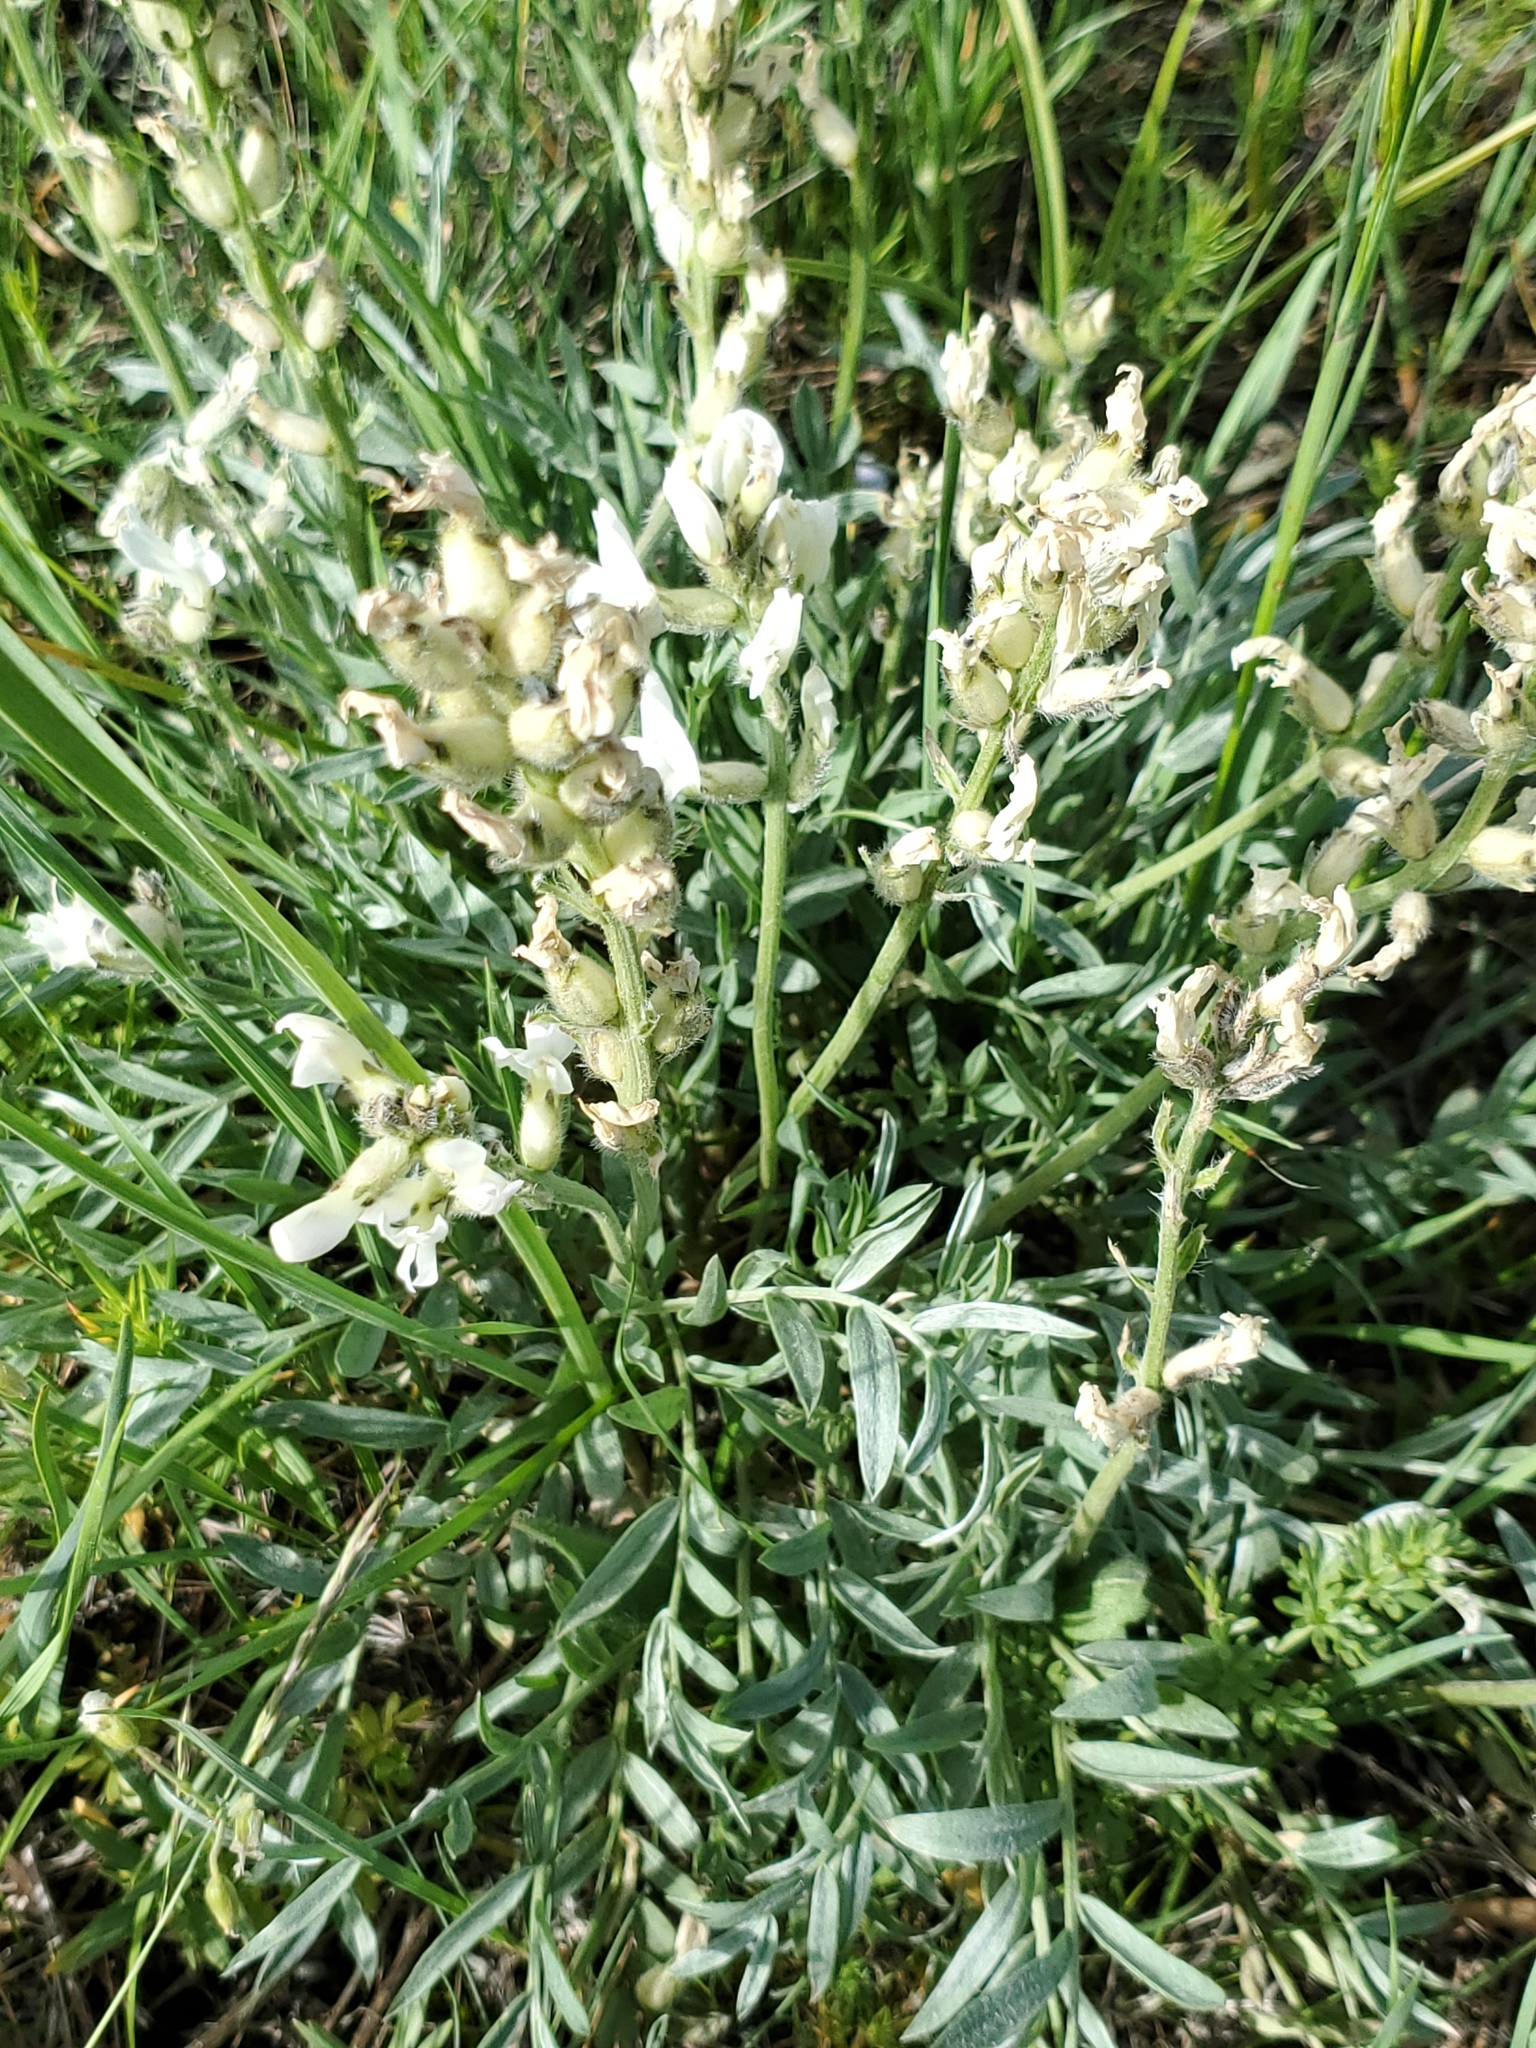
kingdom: Plantae
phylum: Tracheophyta
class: Magnoliopsida
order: Fabales
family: Fabaceae
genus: Oxytropis
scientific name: Oxytropis sericea
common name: Silky locoweed
